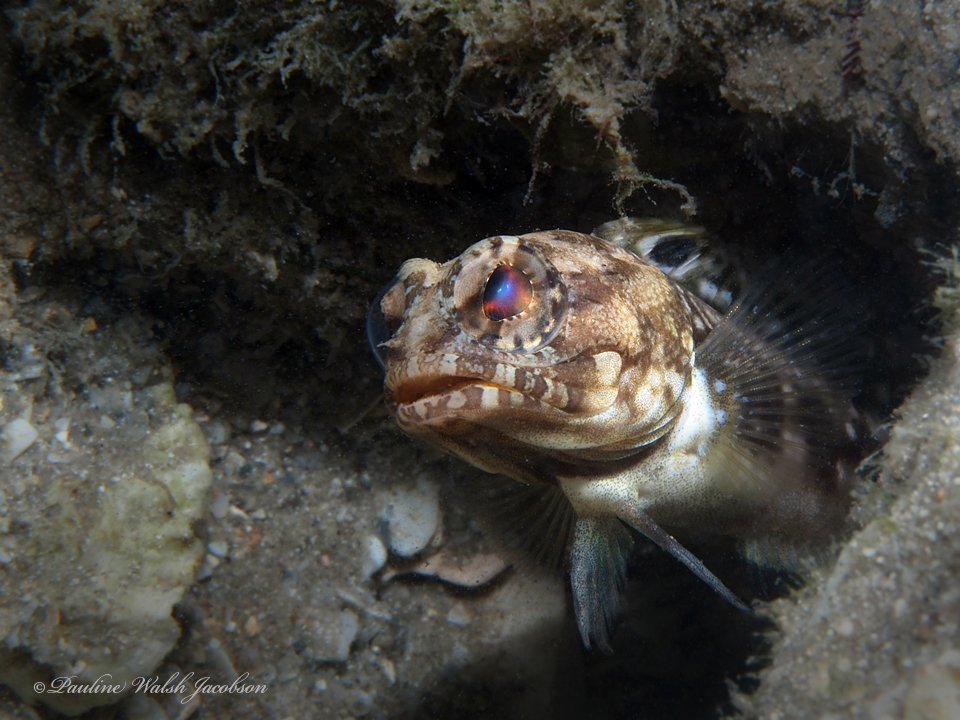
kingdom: Animalia
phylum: Chordata
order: Perciformes
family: Opistognathidae
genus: Opistognathus
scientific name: Opistognathus robinsi
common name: Spotfin jawfish
